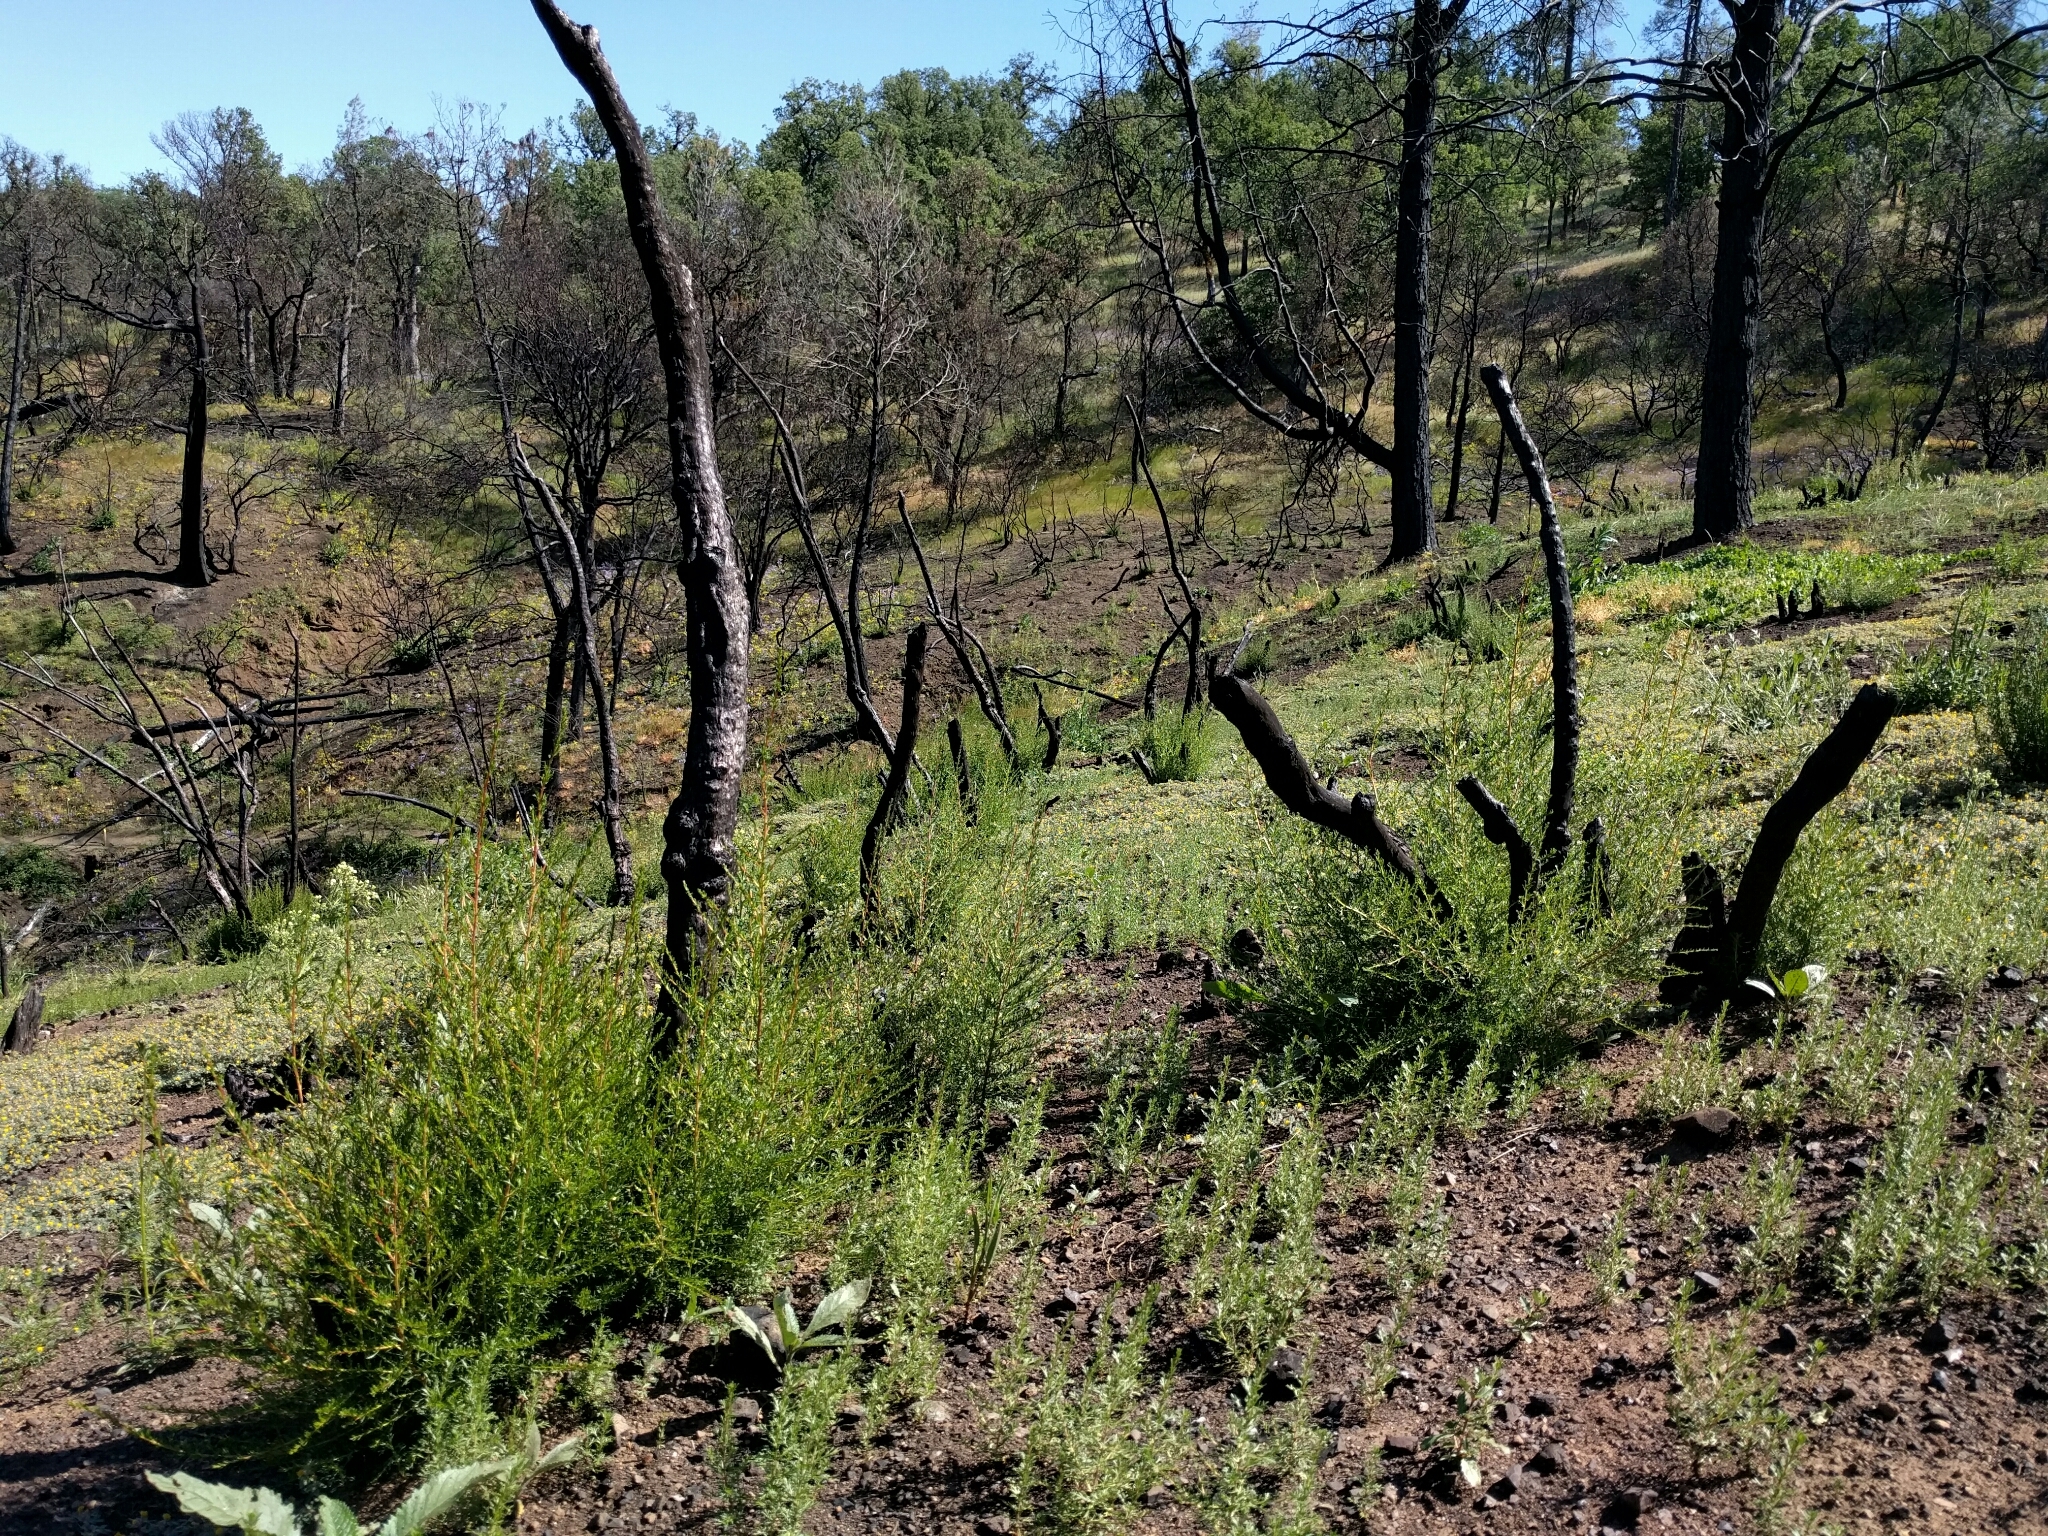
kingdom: Plantae
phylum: Tracheophyta
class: Magnoliopsida
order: Rosales
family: Rosaceae
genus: Adenostoma
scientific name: Adenostoma fasciculatum
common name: Chamise
